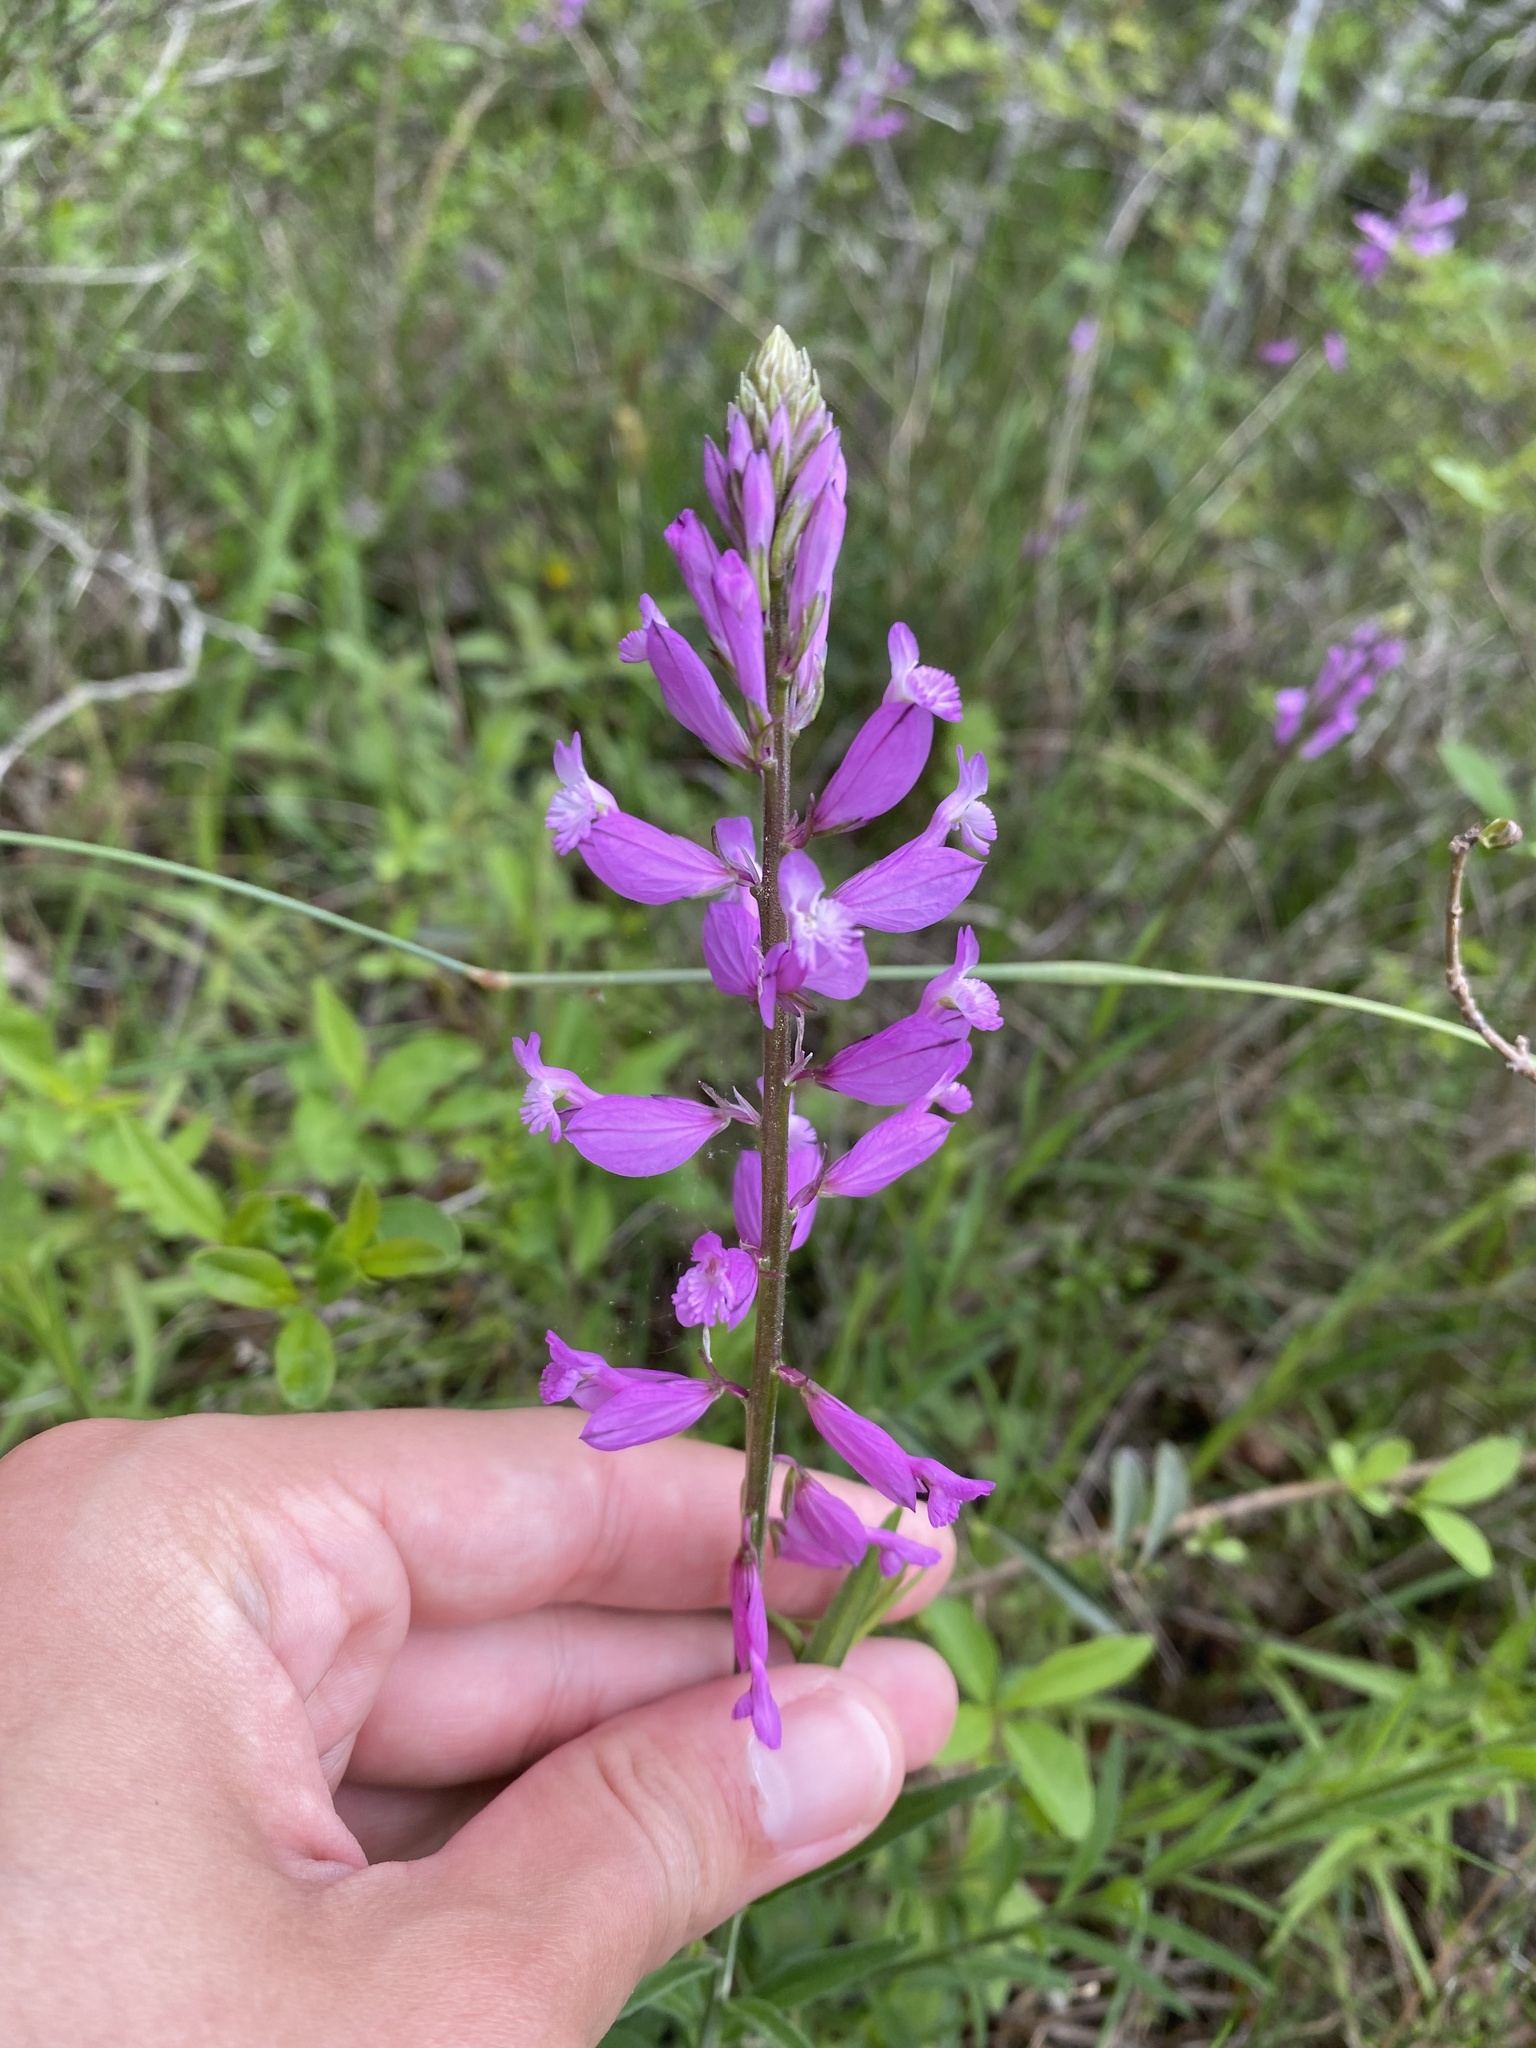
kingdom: Plantae
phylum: Tracheophyta
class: Magnoliopsida
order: Fabales
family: Polygalaceae
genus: Polygala
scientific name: Polygala major
